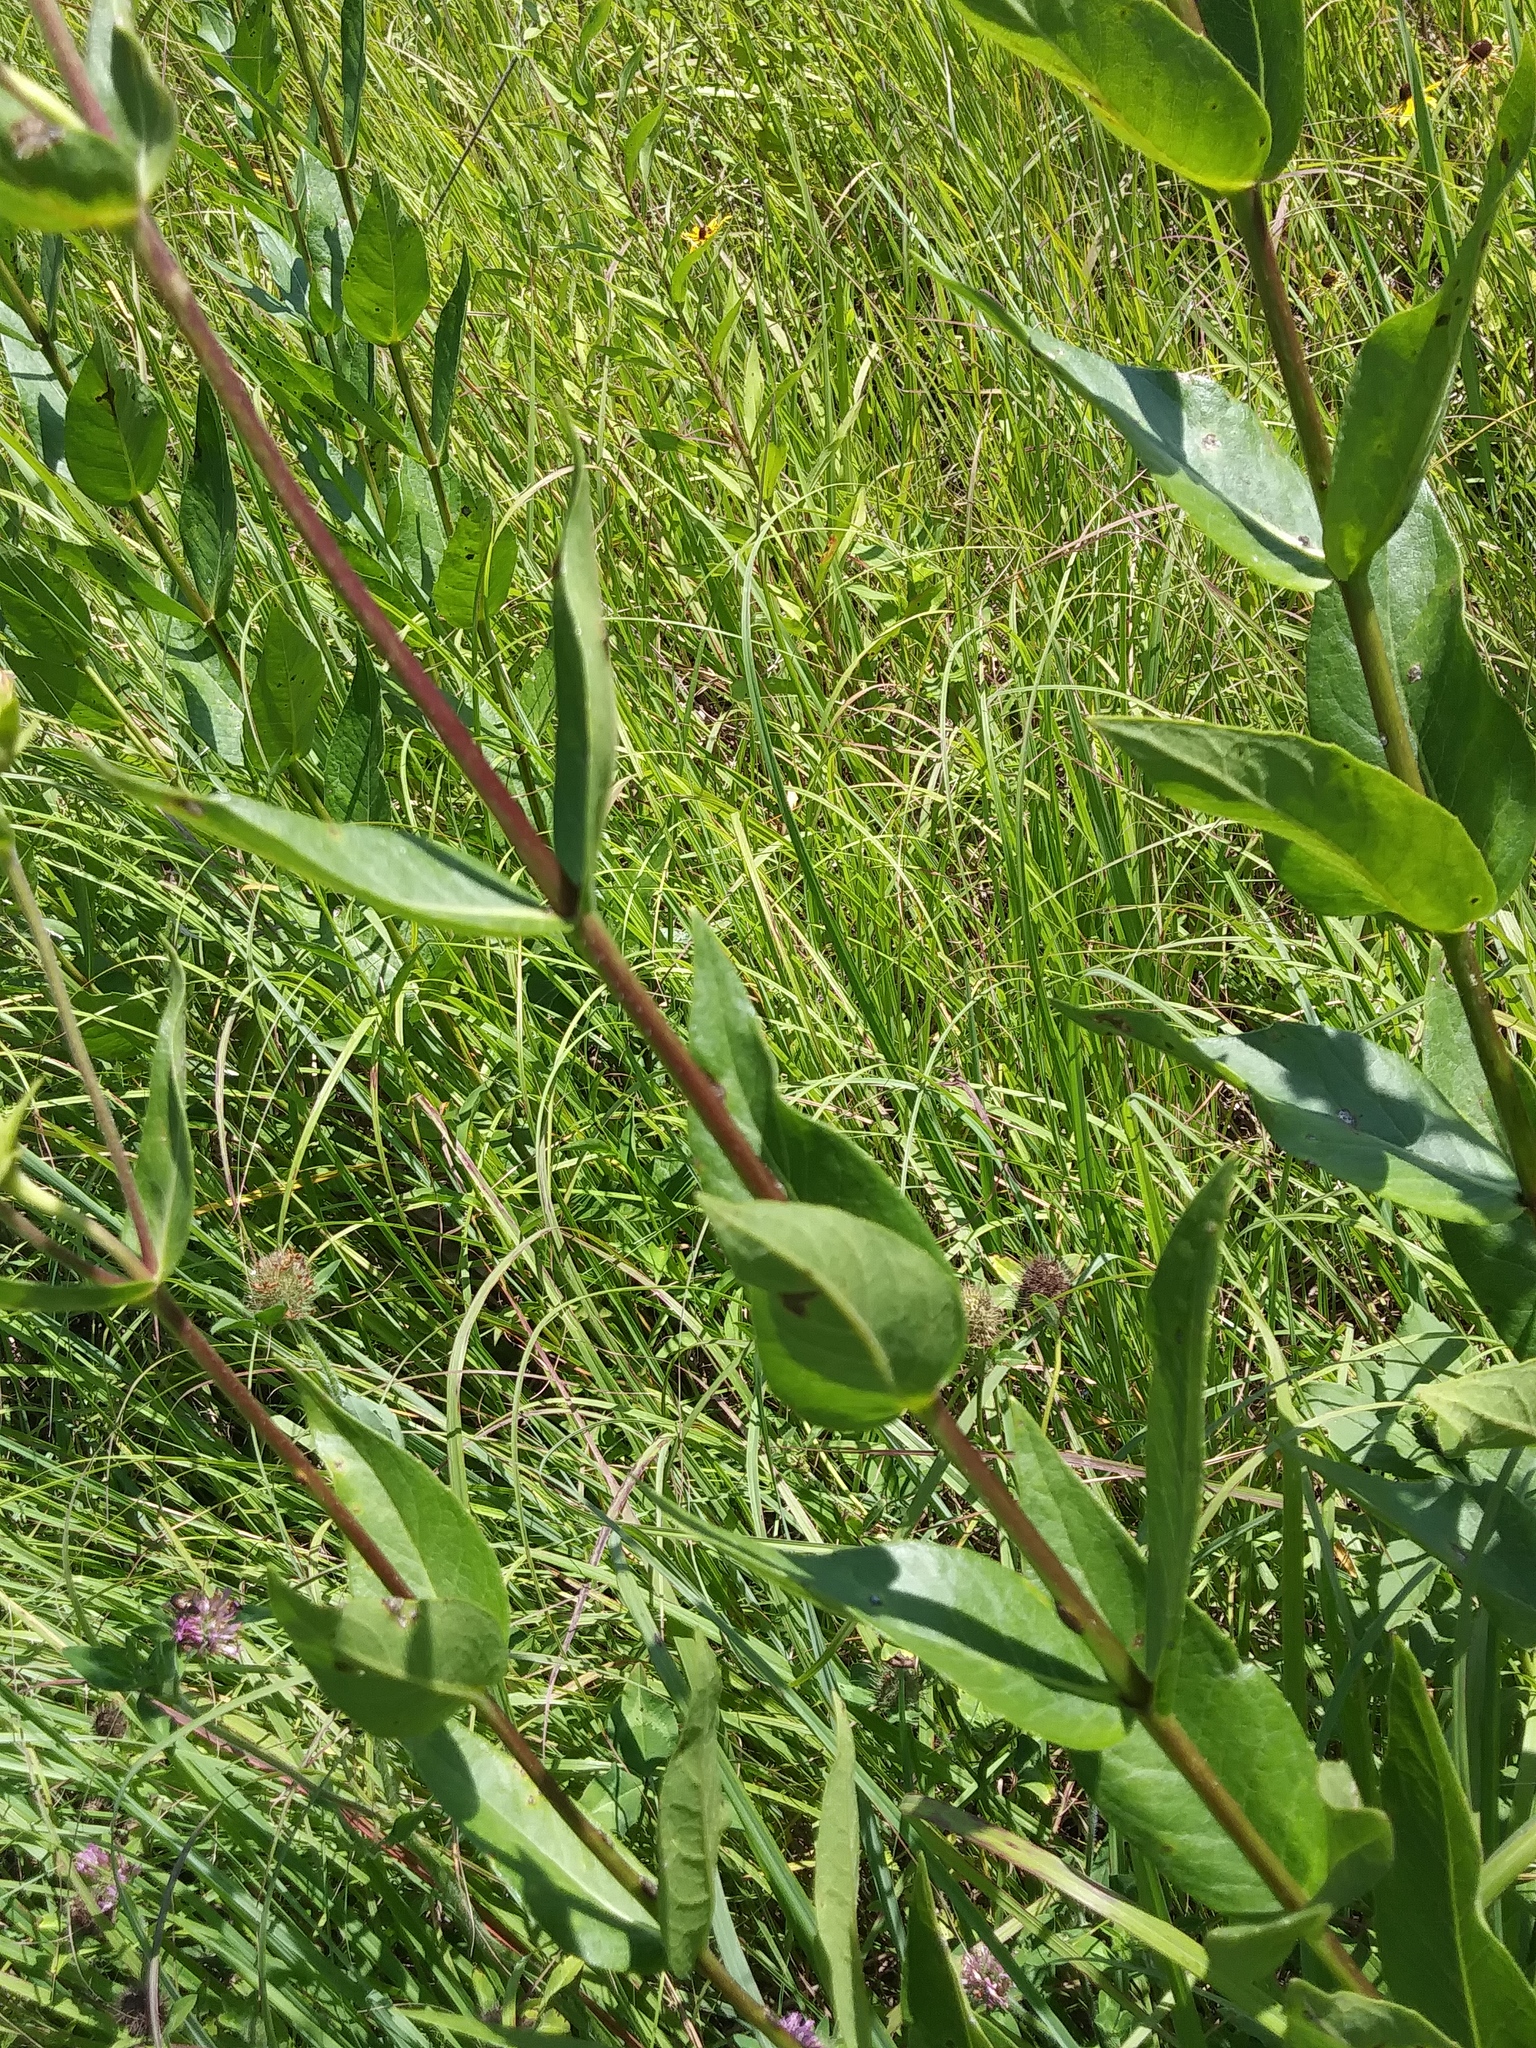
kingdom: Plantae
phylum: Tracheophyta
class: Magnoliopsida
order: Asterales
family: Asteraceae
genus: Silphium
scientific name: Silphium integrifolium
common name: Whole-leaf rosinweed
